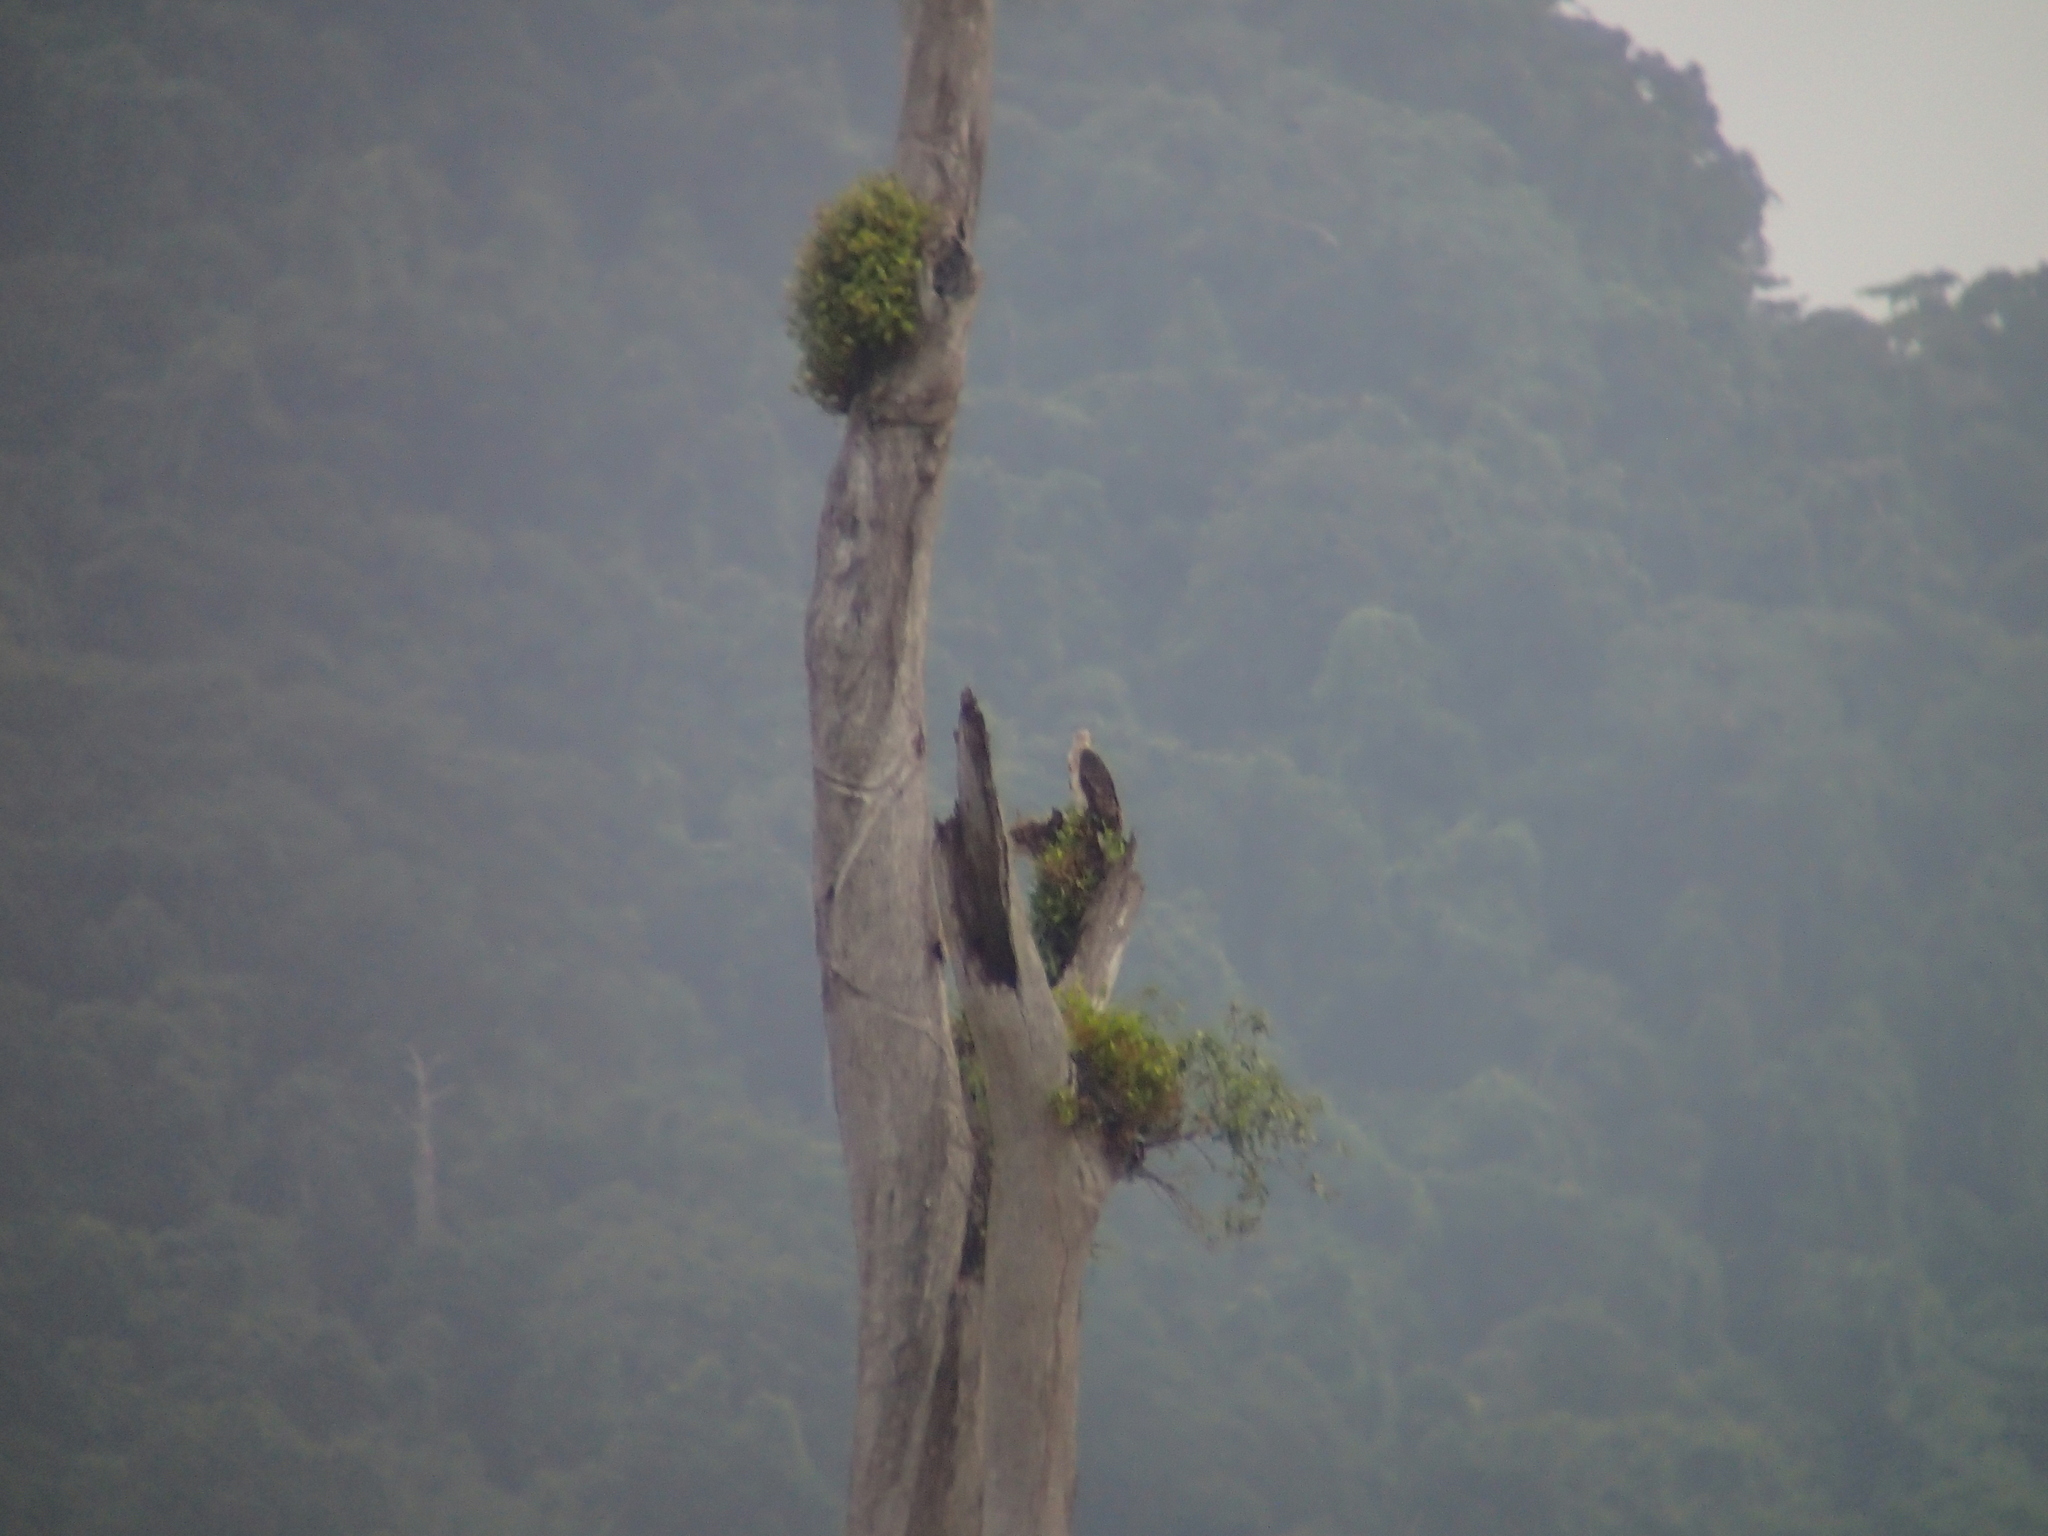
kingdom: Animalia
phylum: Chordata
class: Aves
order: Accipitriformes
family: Accipitridae
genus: Haliaeetus
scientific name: Haliaeetus leucogaster
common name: White-bellied sea eagle
